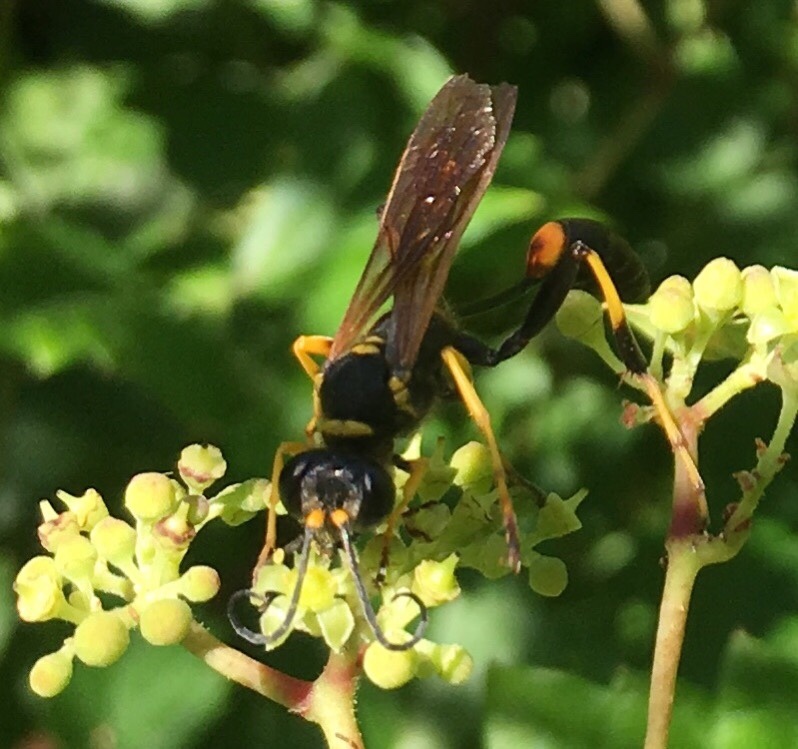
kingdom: Animalia
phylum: Arthropoda
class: Insecta
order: Hymenoptera
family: Sphecidae
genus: Sceliphron
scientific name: Sceliphron caementarium
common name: Mud dauber
